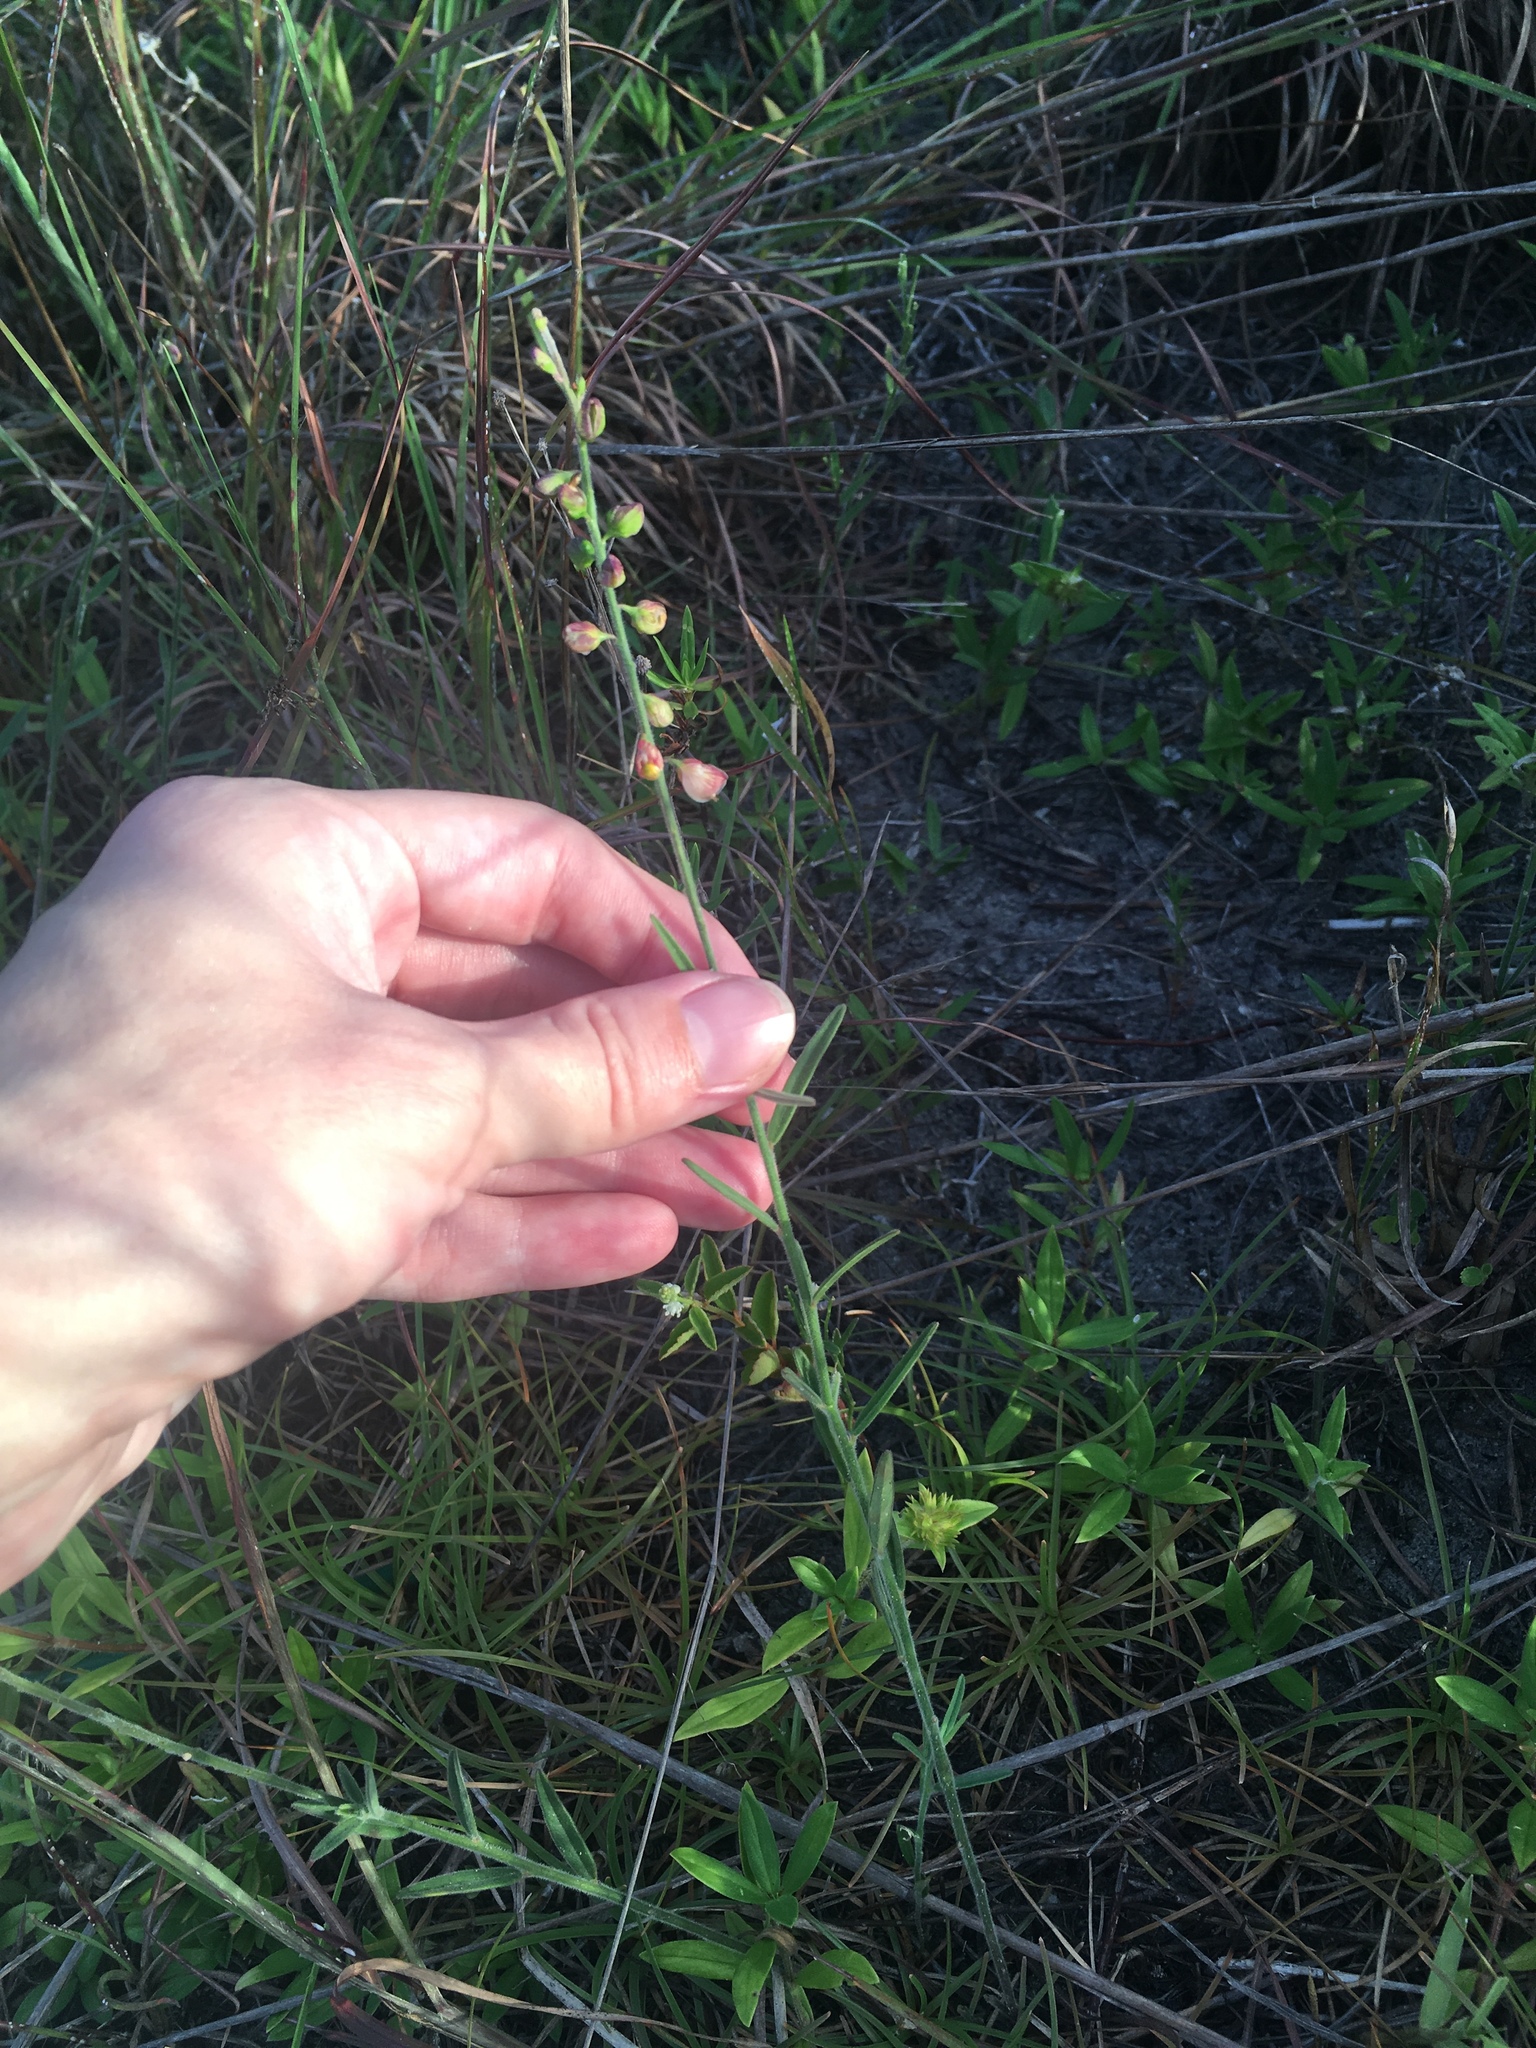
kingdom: Plantae
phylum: Tracheophyta
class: Magnoliopsida
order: Fabales
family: Polygalaceae
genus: Asemeia
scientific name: Asemeia grandiflora
